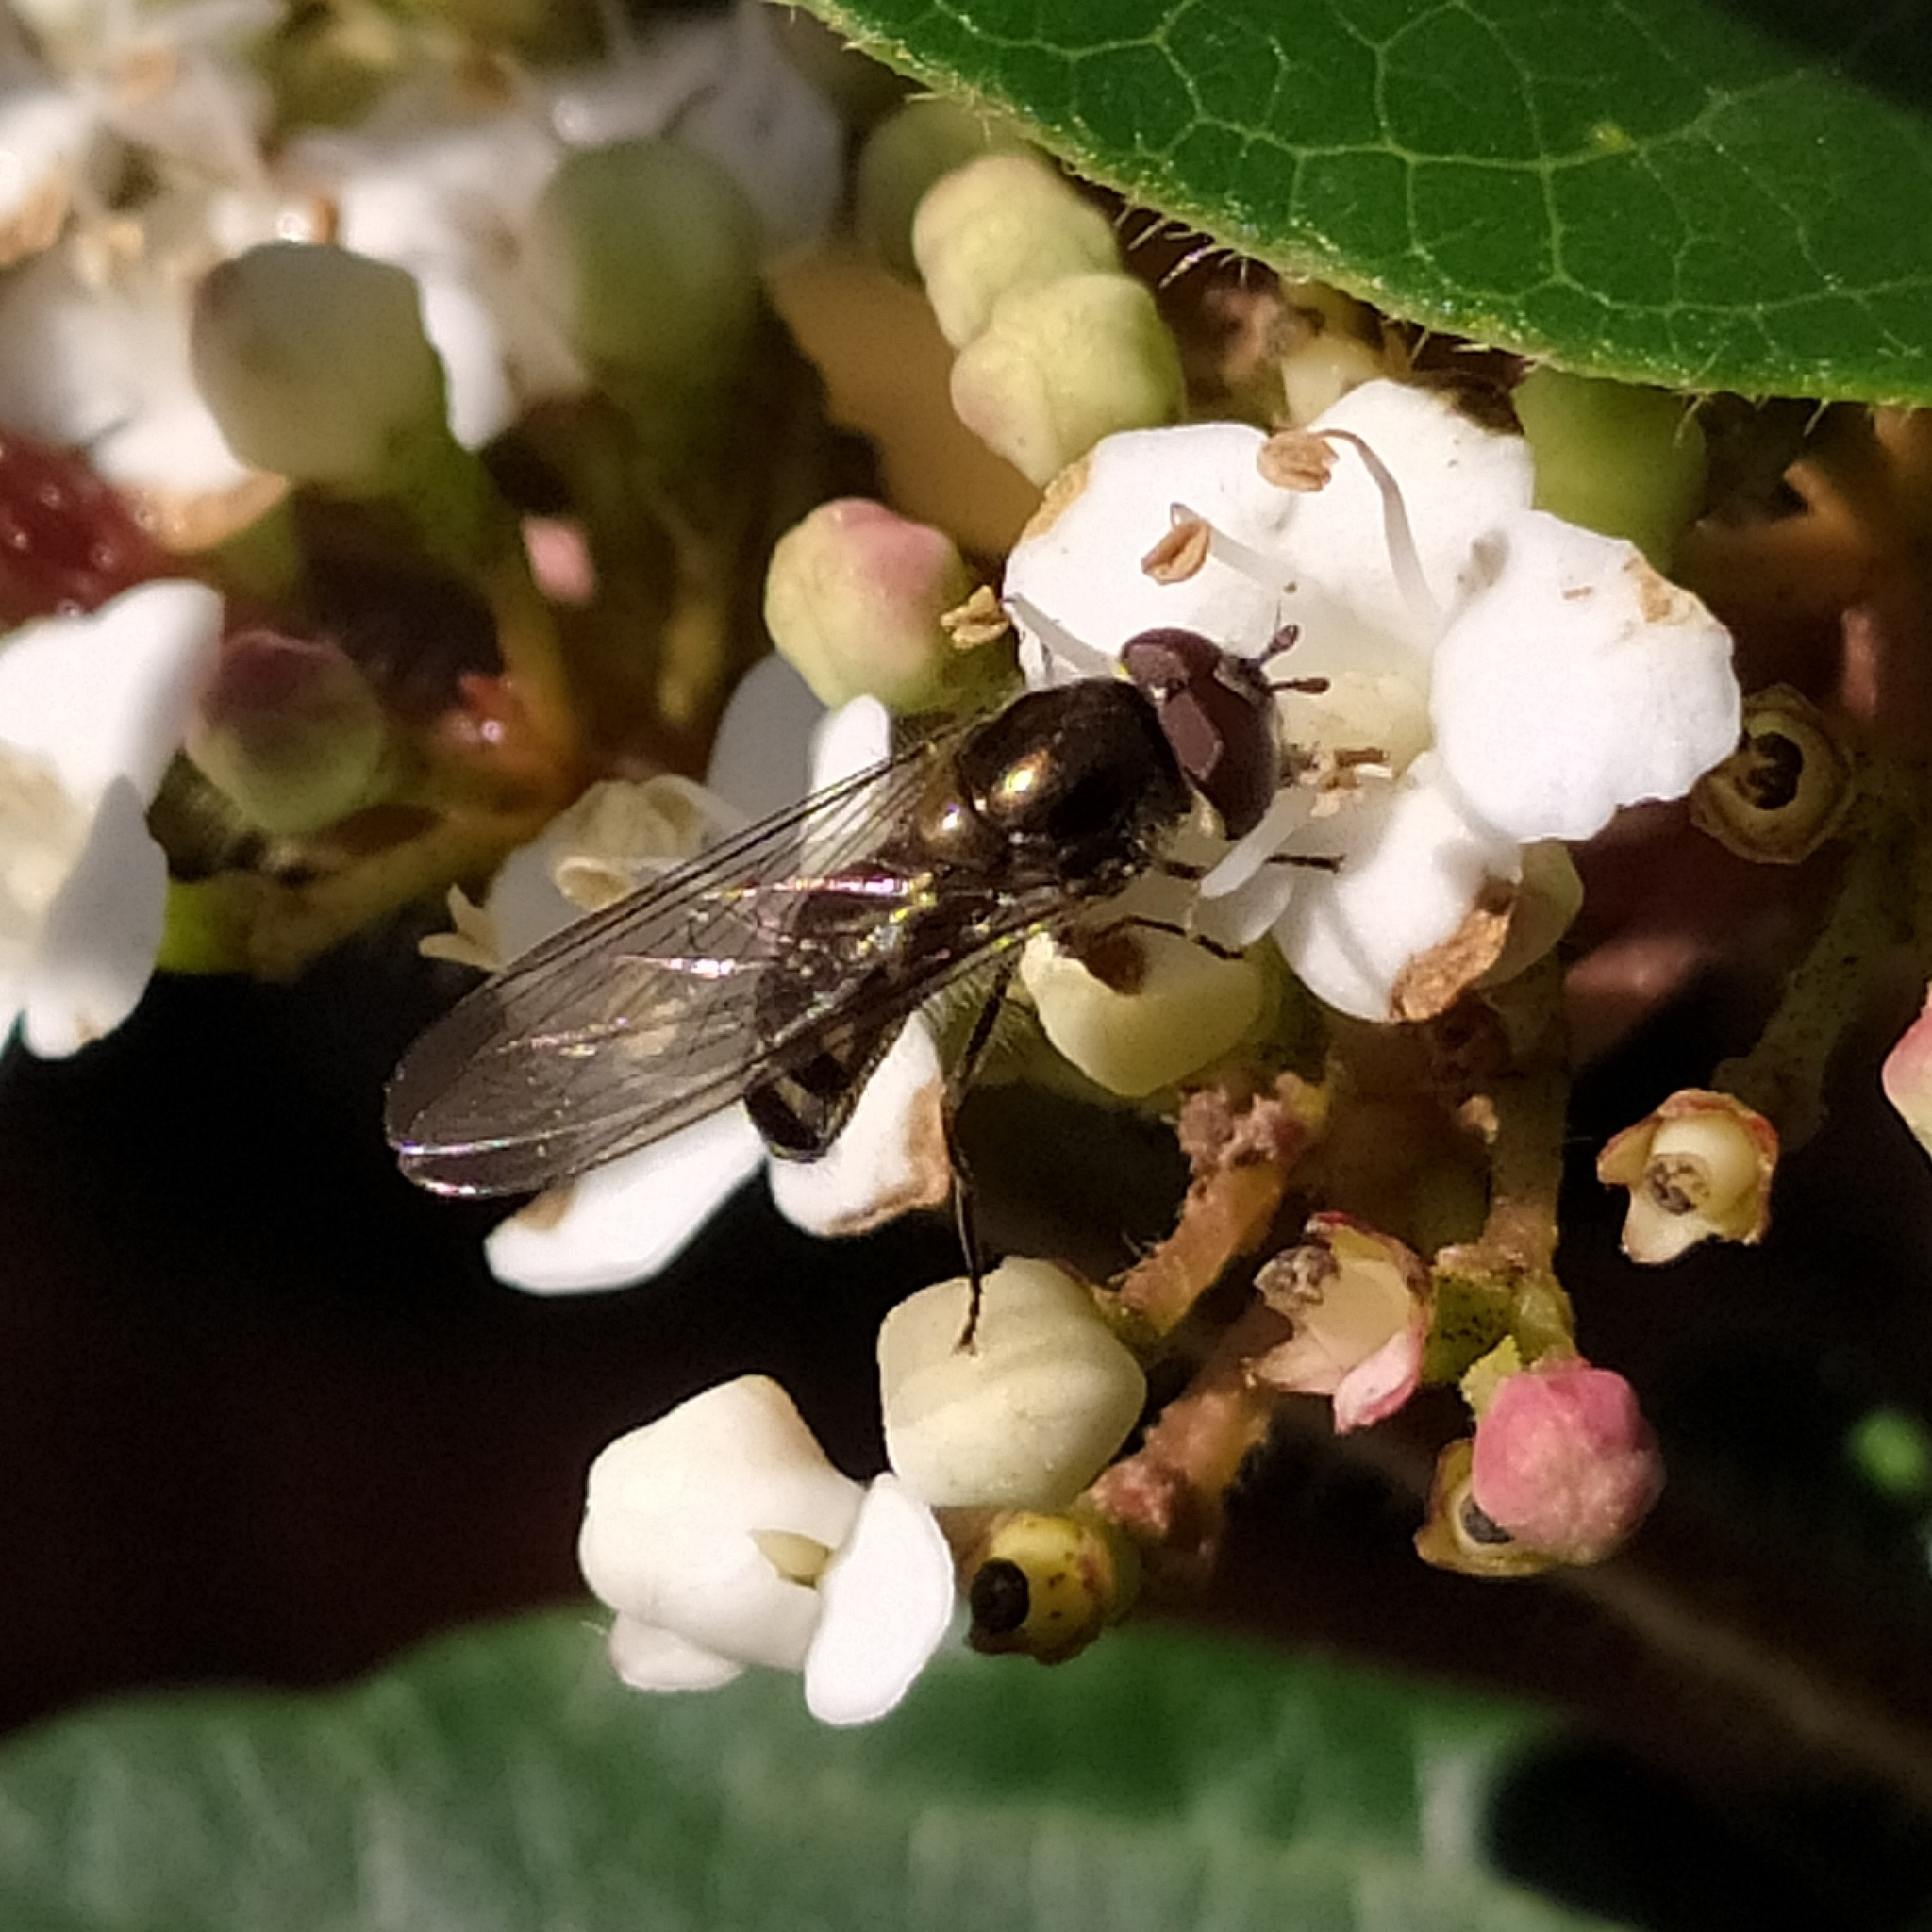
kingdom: Animalia
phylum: Arthropoda
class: Insecta
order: Diptera
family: Syrphidae
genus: Meliscaeva
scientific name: Meliscaeva auricollis
